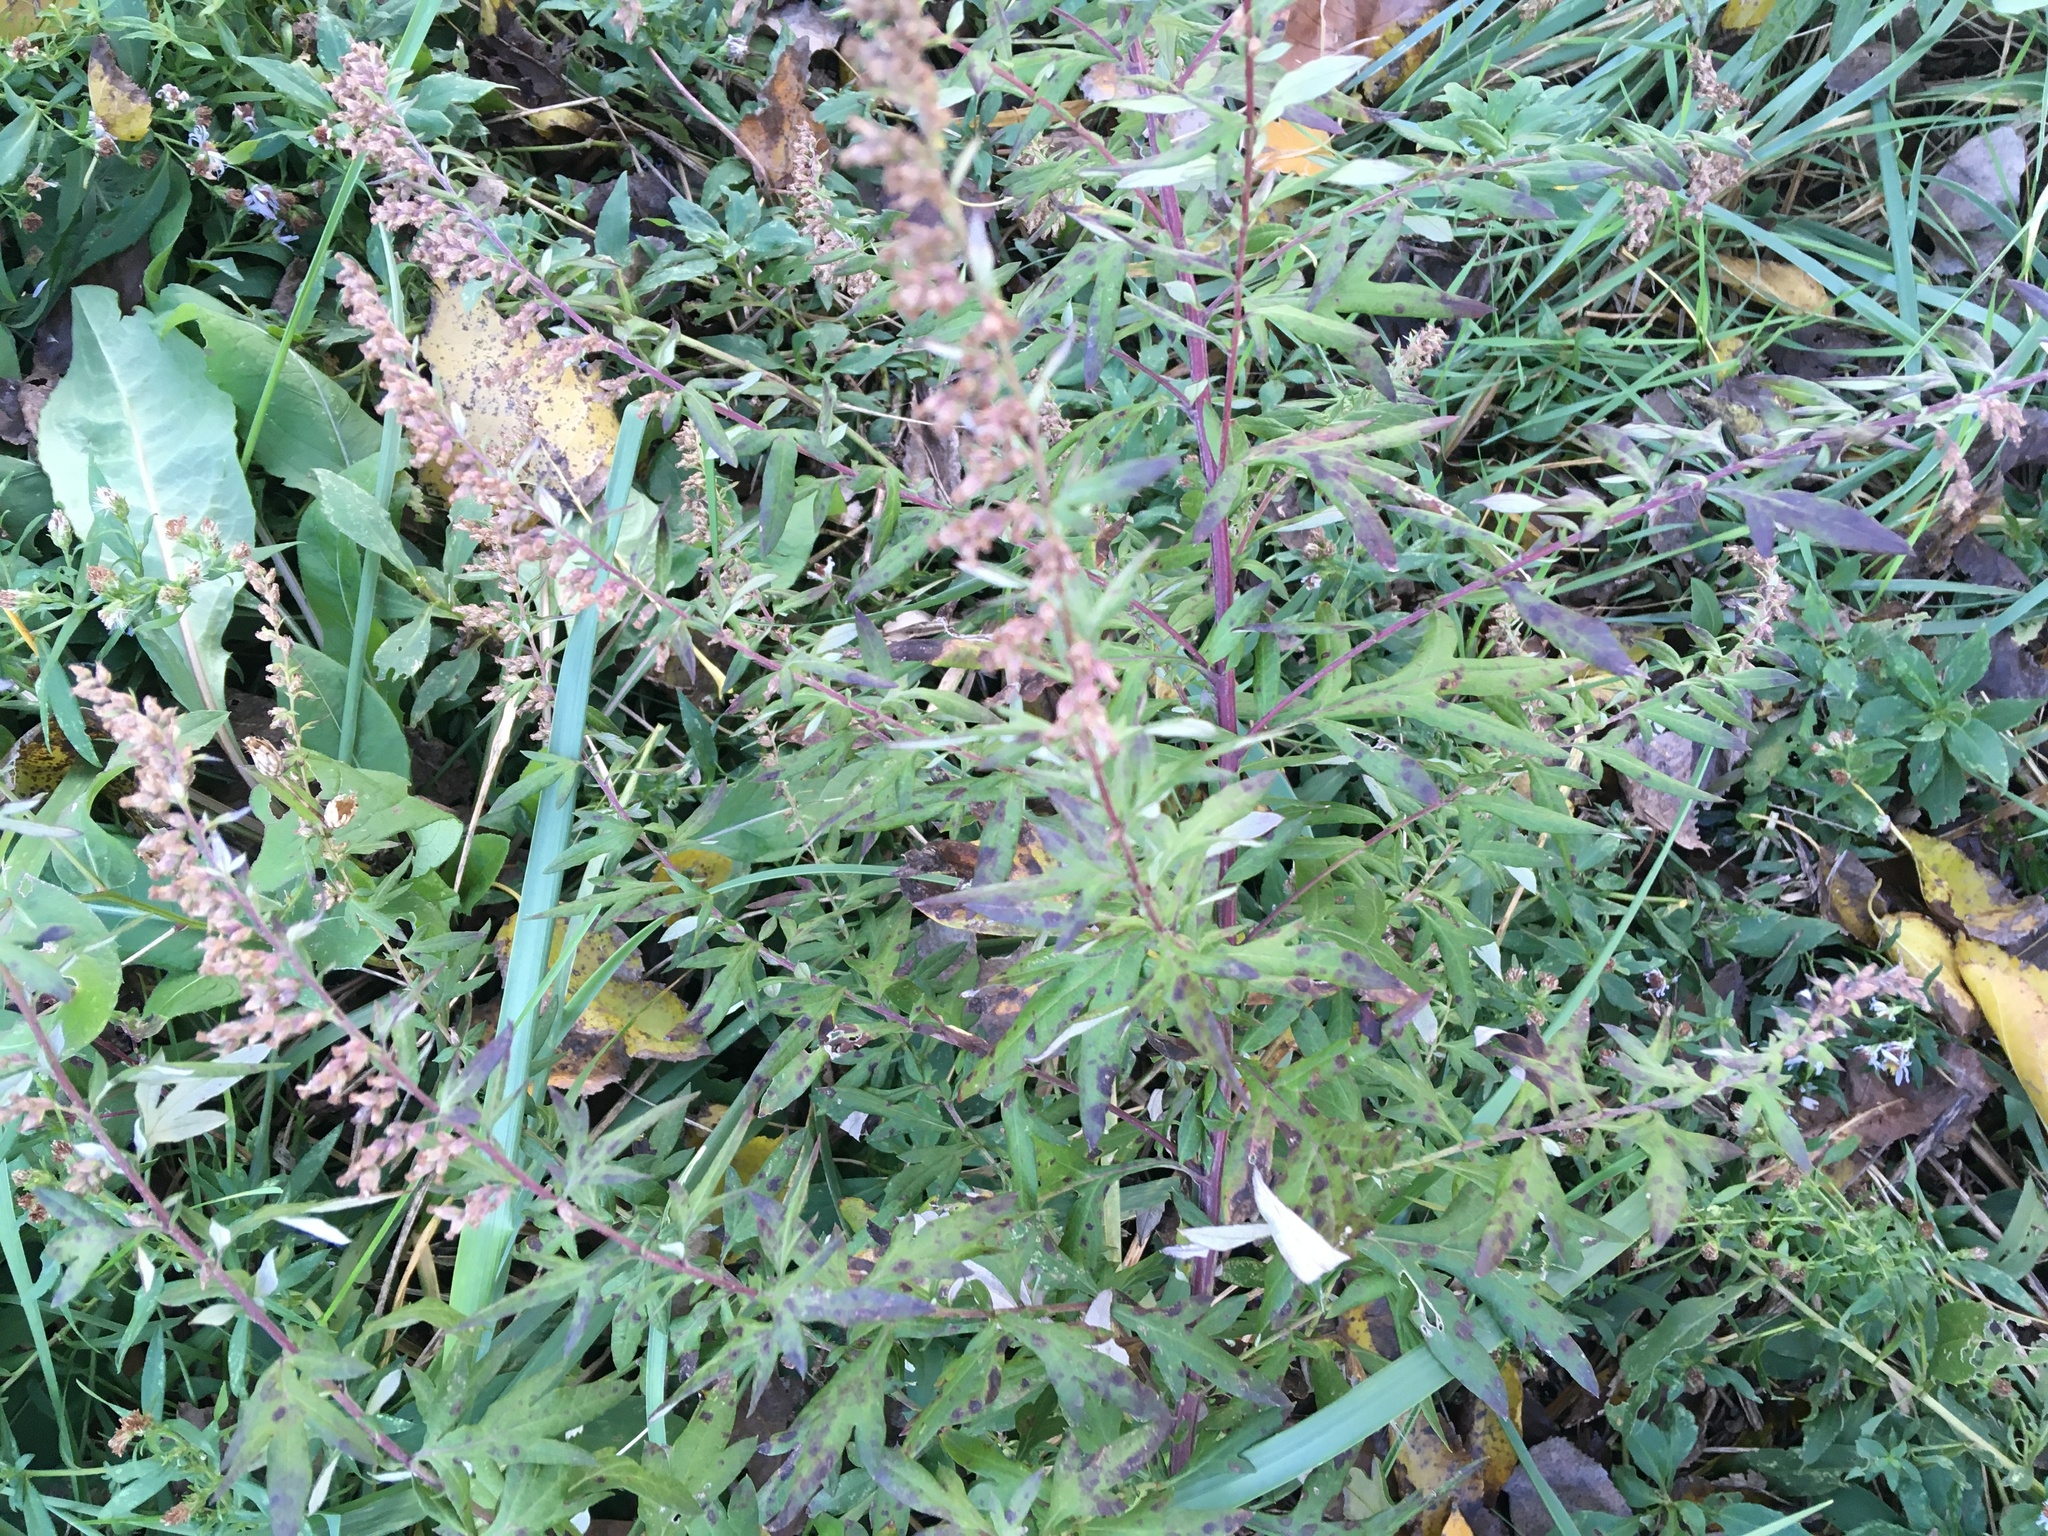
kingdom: Plantae
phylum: Tracheophyta
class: Magnoliopsida
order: Asterales
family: Asteraceae
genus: Artemisia
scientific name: Artemisia vulgaris
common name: Mugwort
